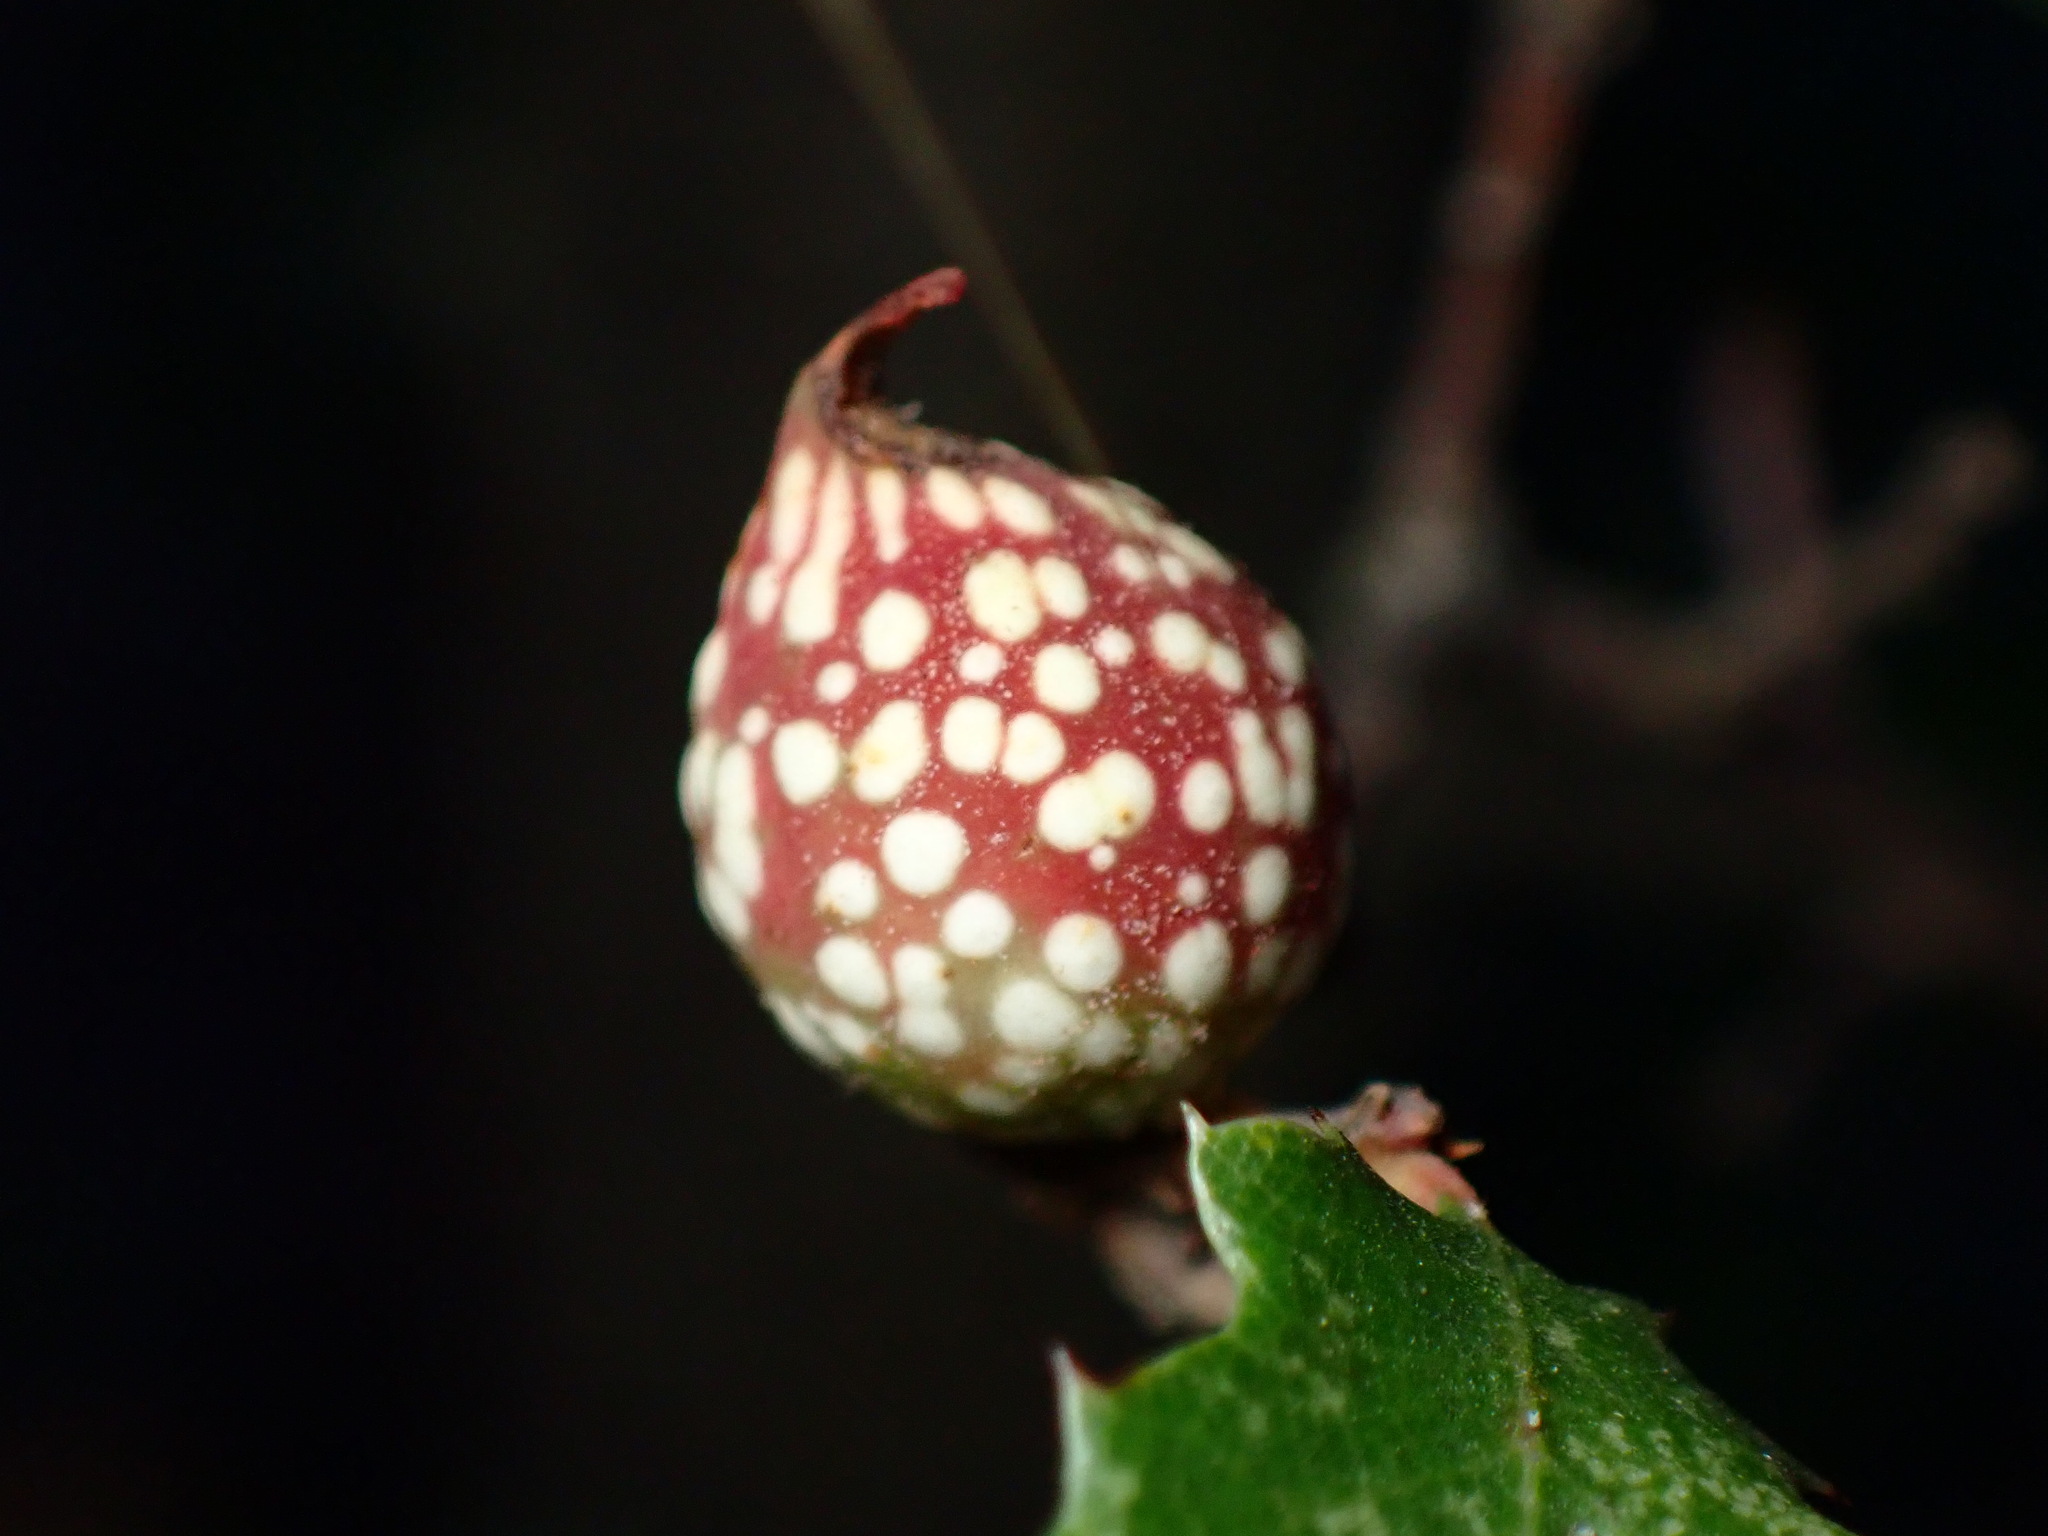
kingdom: Animalia
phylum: Arthropoda
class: Insecta
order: Hymenoptera
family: Cynipidae
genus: Burnettweldia
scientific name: Burnettweldia
